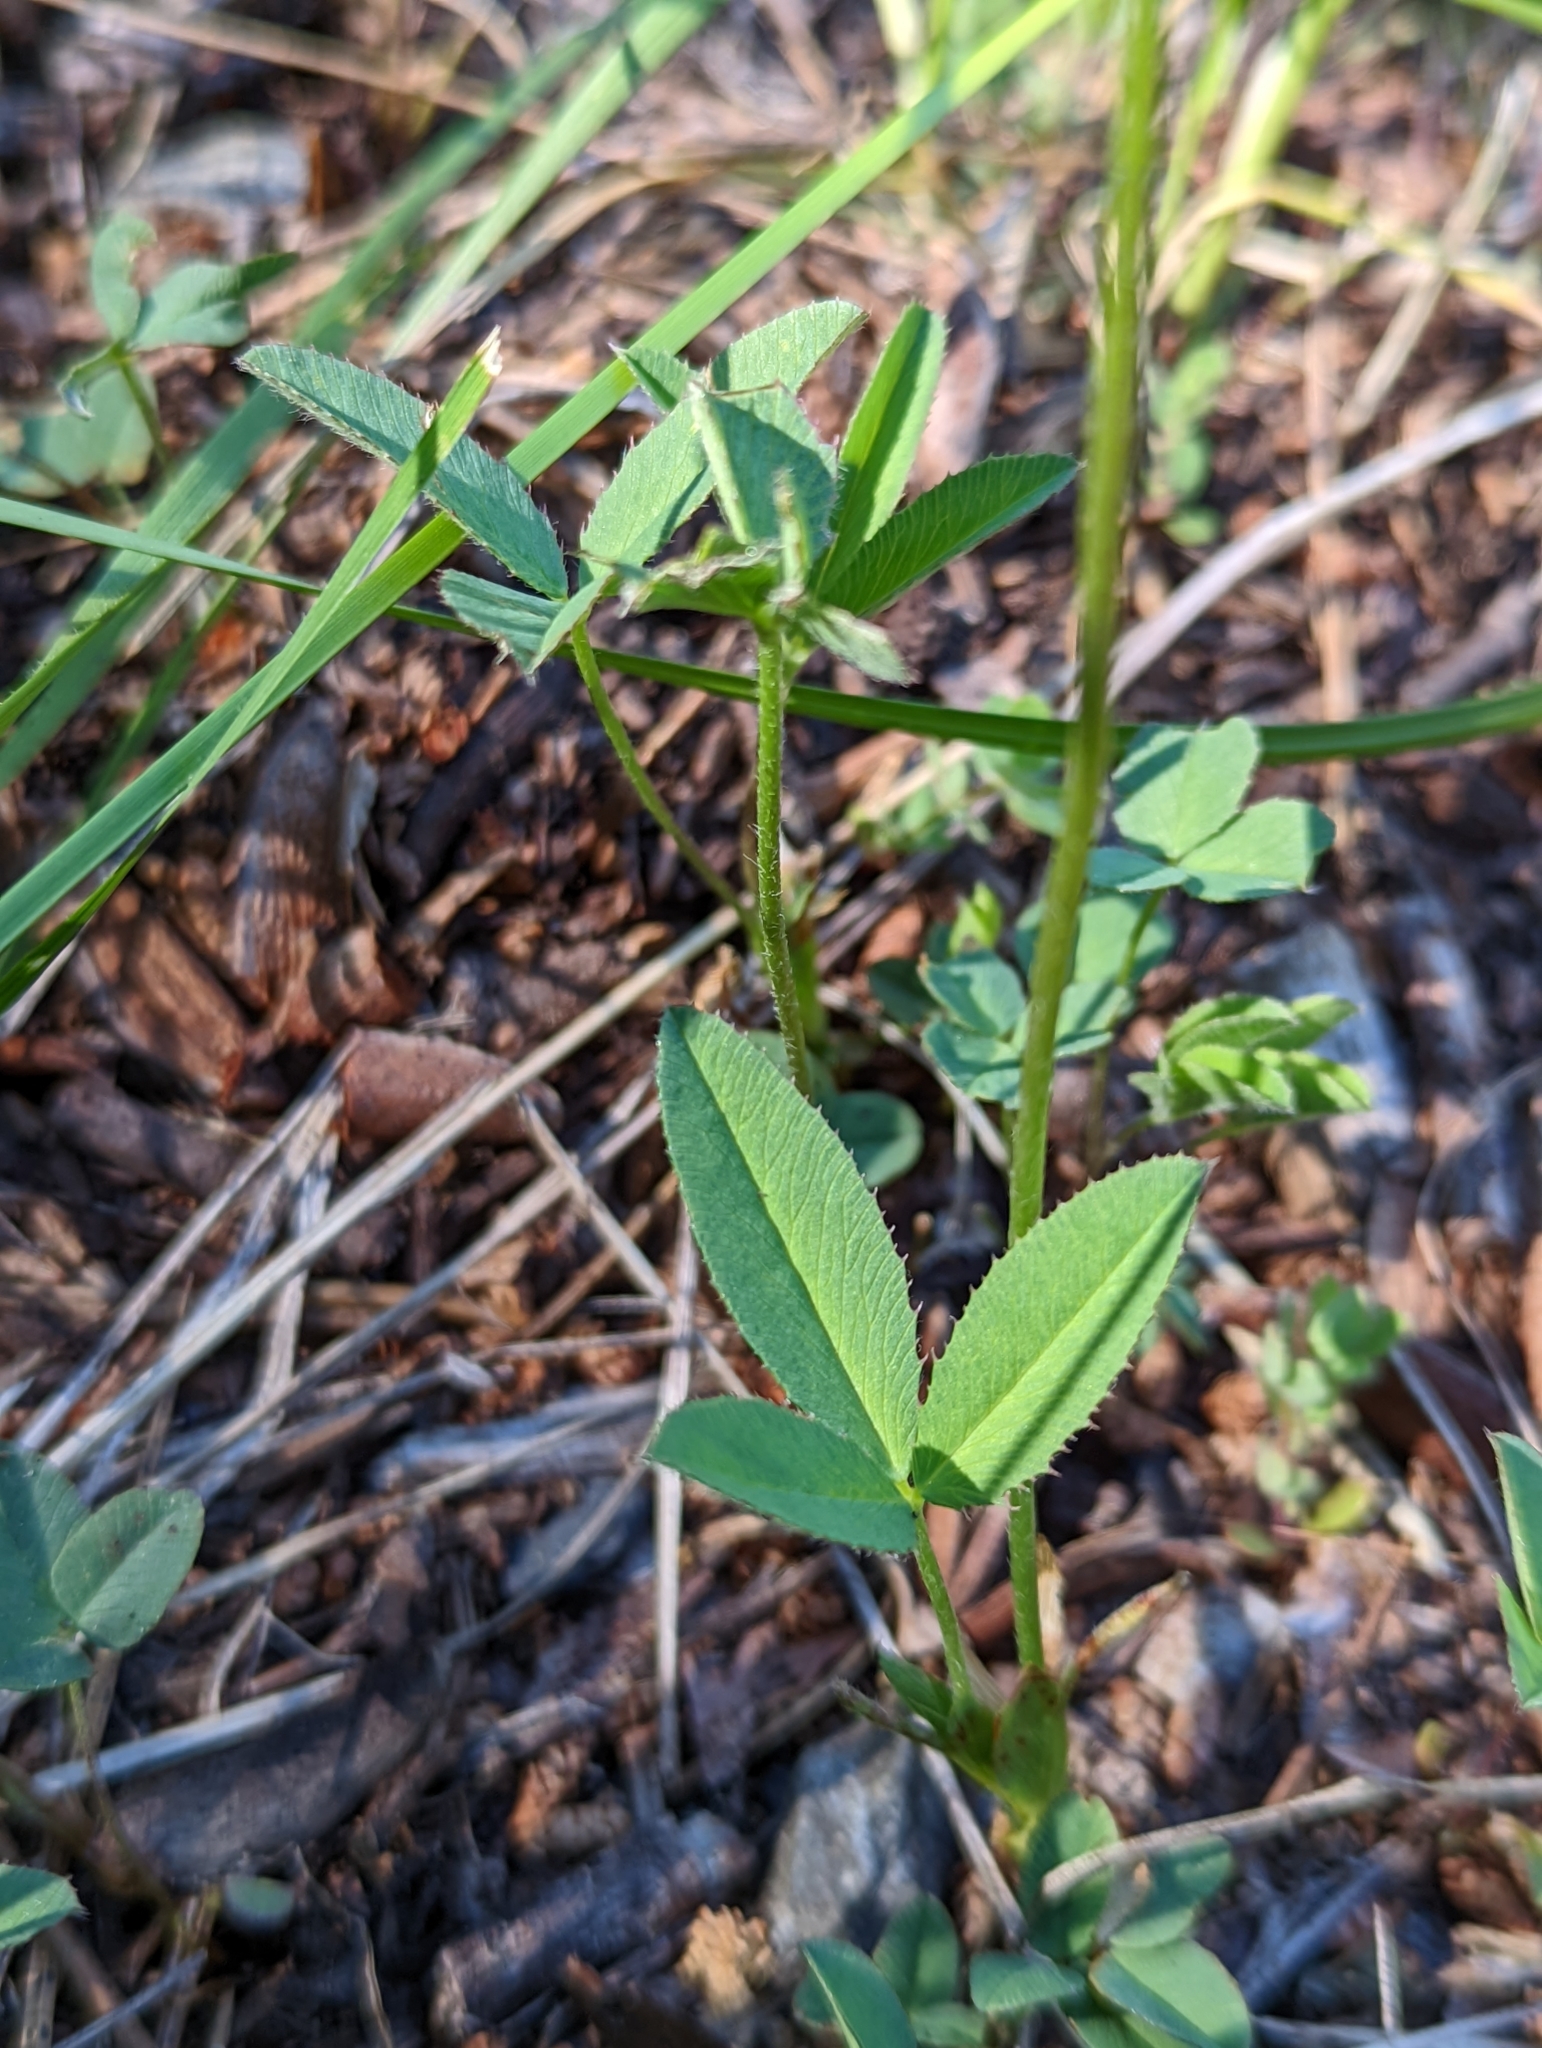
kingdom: Plantae
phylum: Tracheophyta
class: Magnoliopsida
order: Fabales
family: Fabaceae
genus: Trifolium
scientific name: Trifolium longipes
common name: Long-stalk clover
